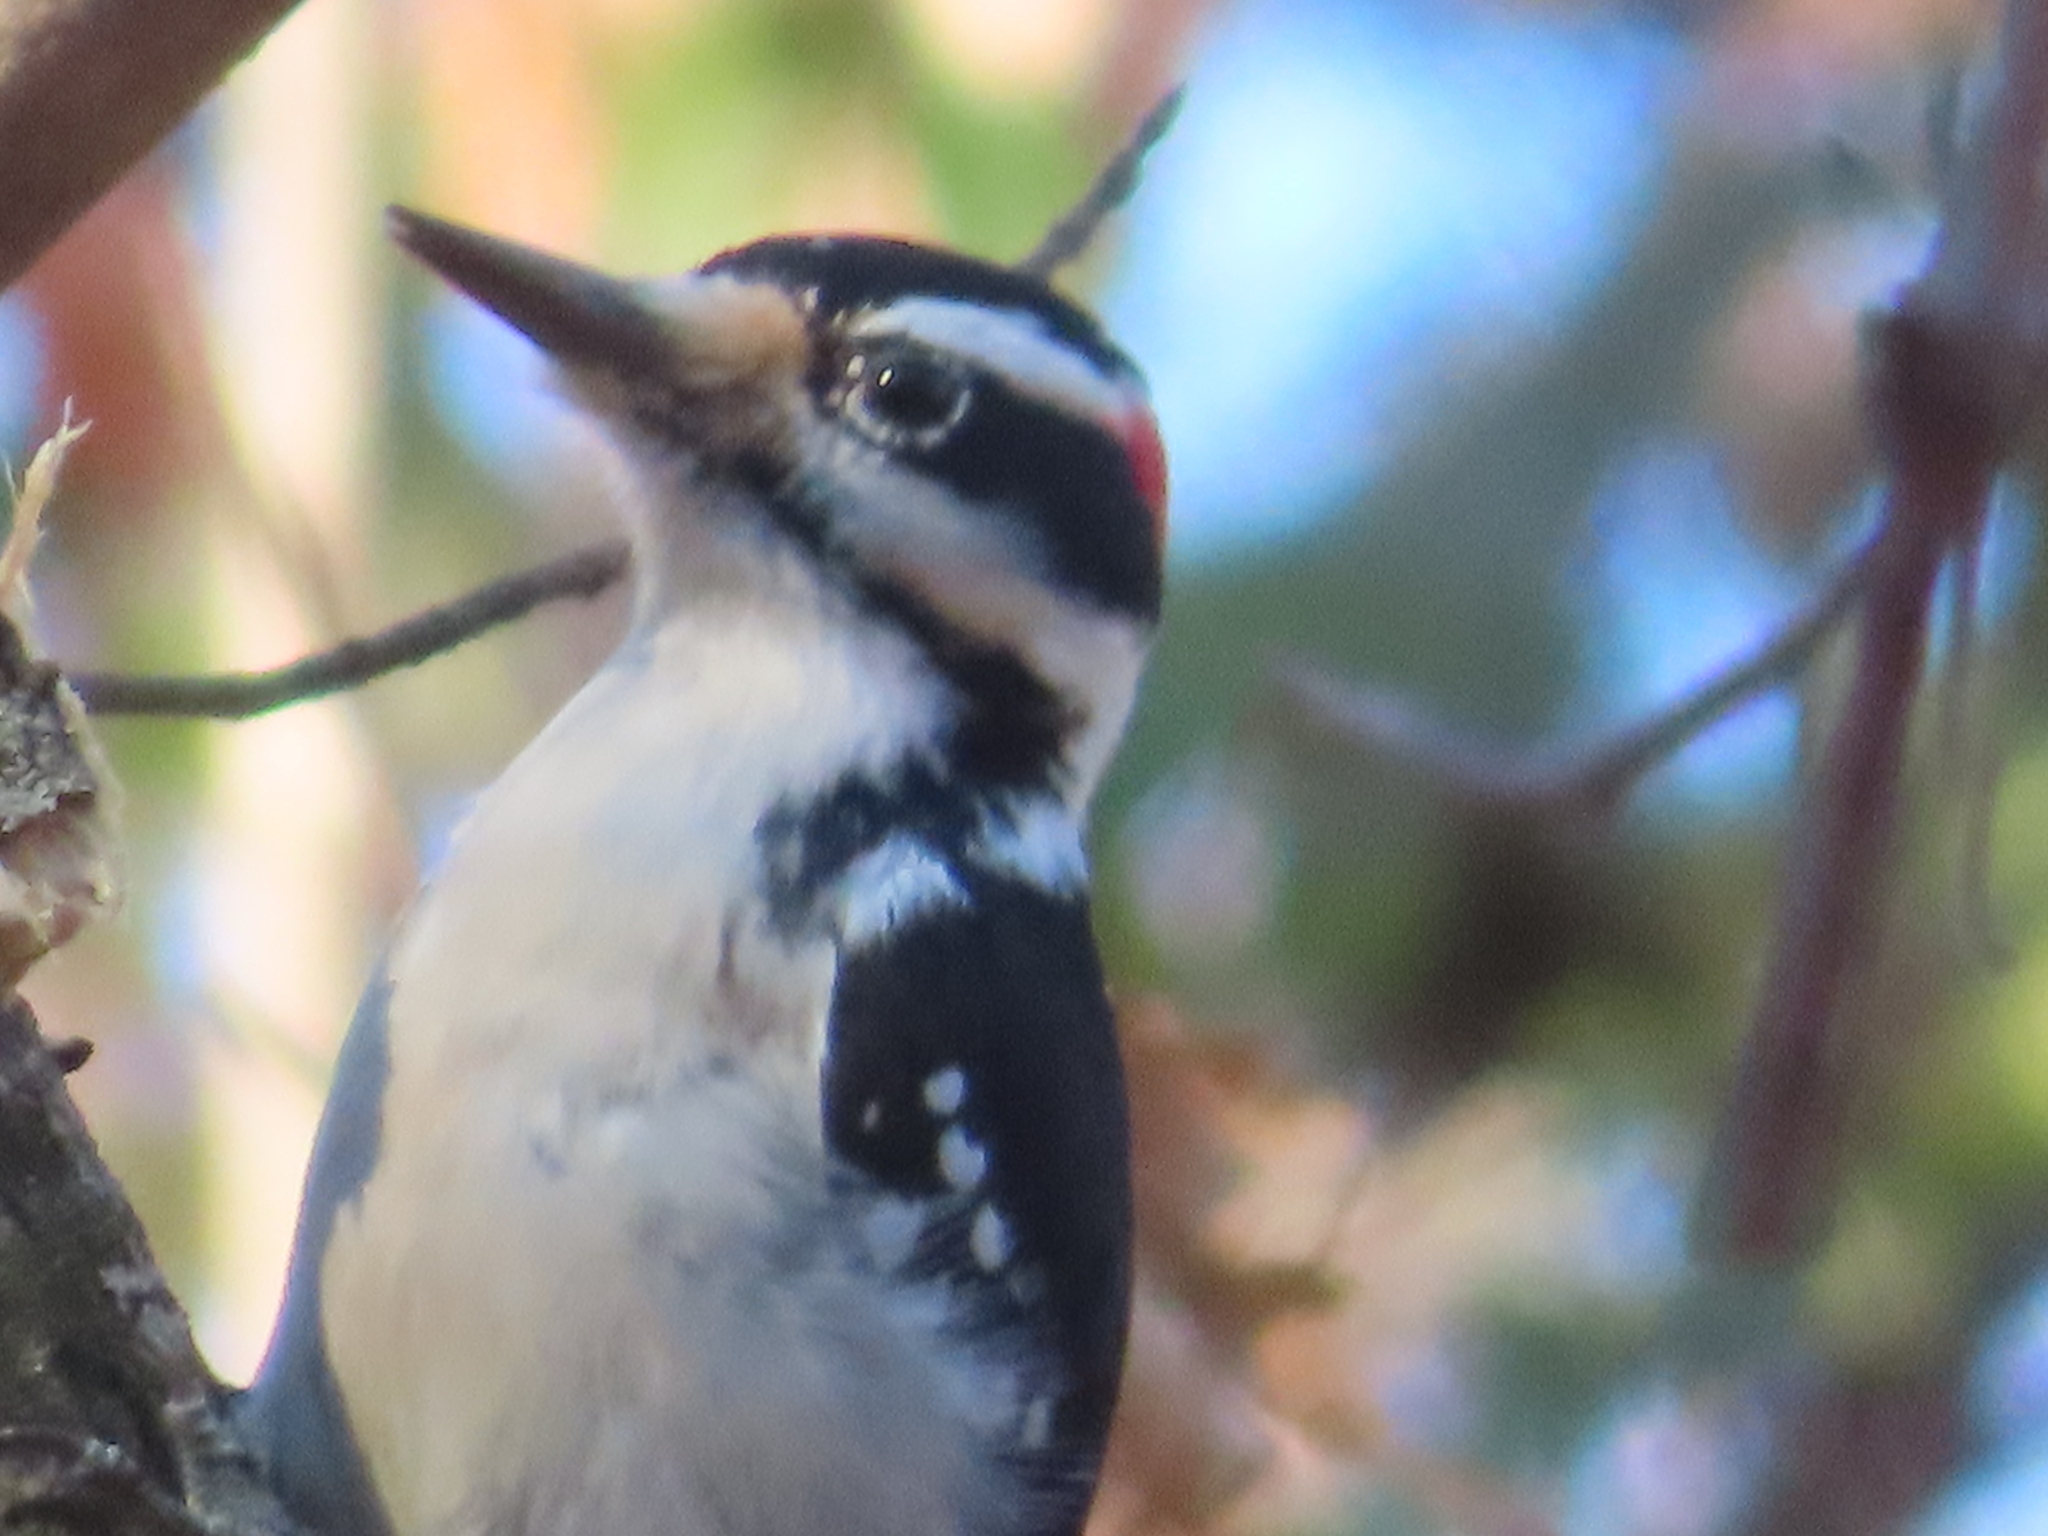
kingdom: Animalia
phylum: Chordata
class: Aves
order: Piciformes
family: Picidae
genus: Leuconotopicus
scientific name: Leuconotopicus villosus
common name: Hairy woodpecker
